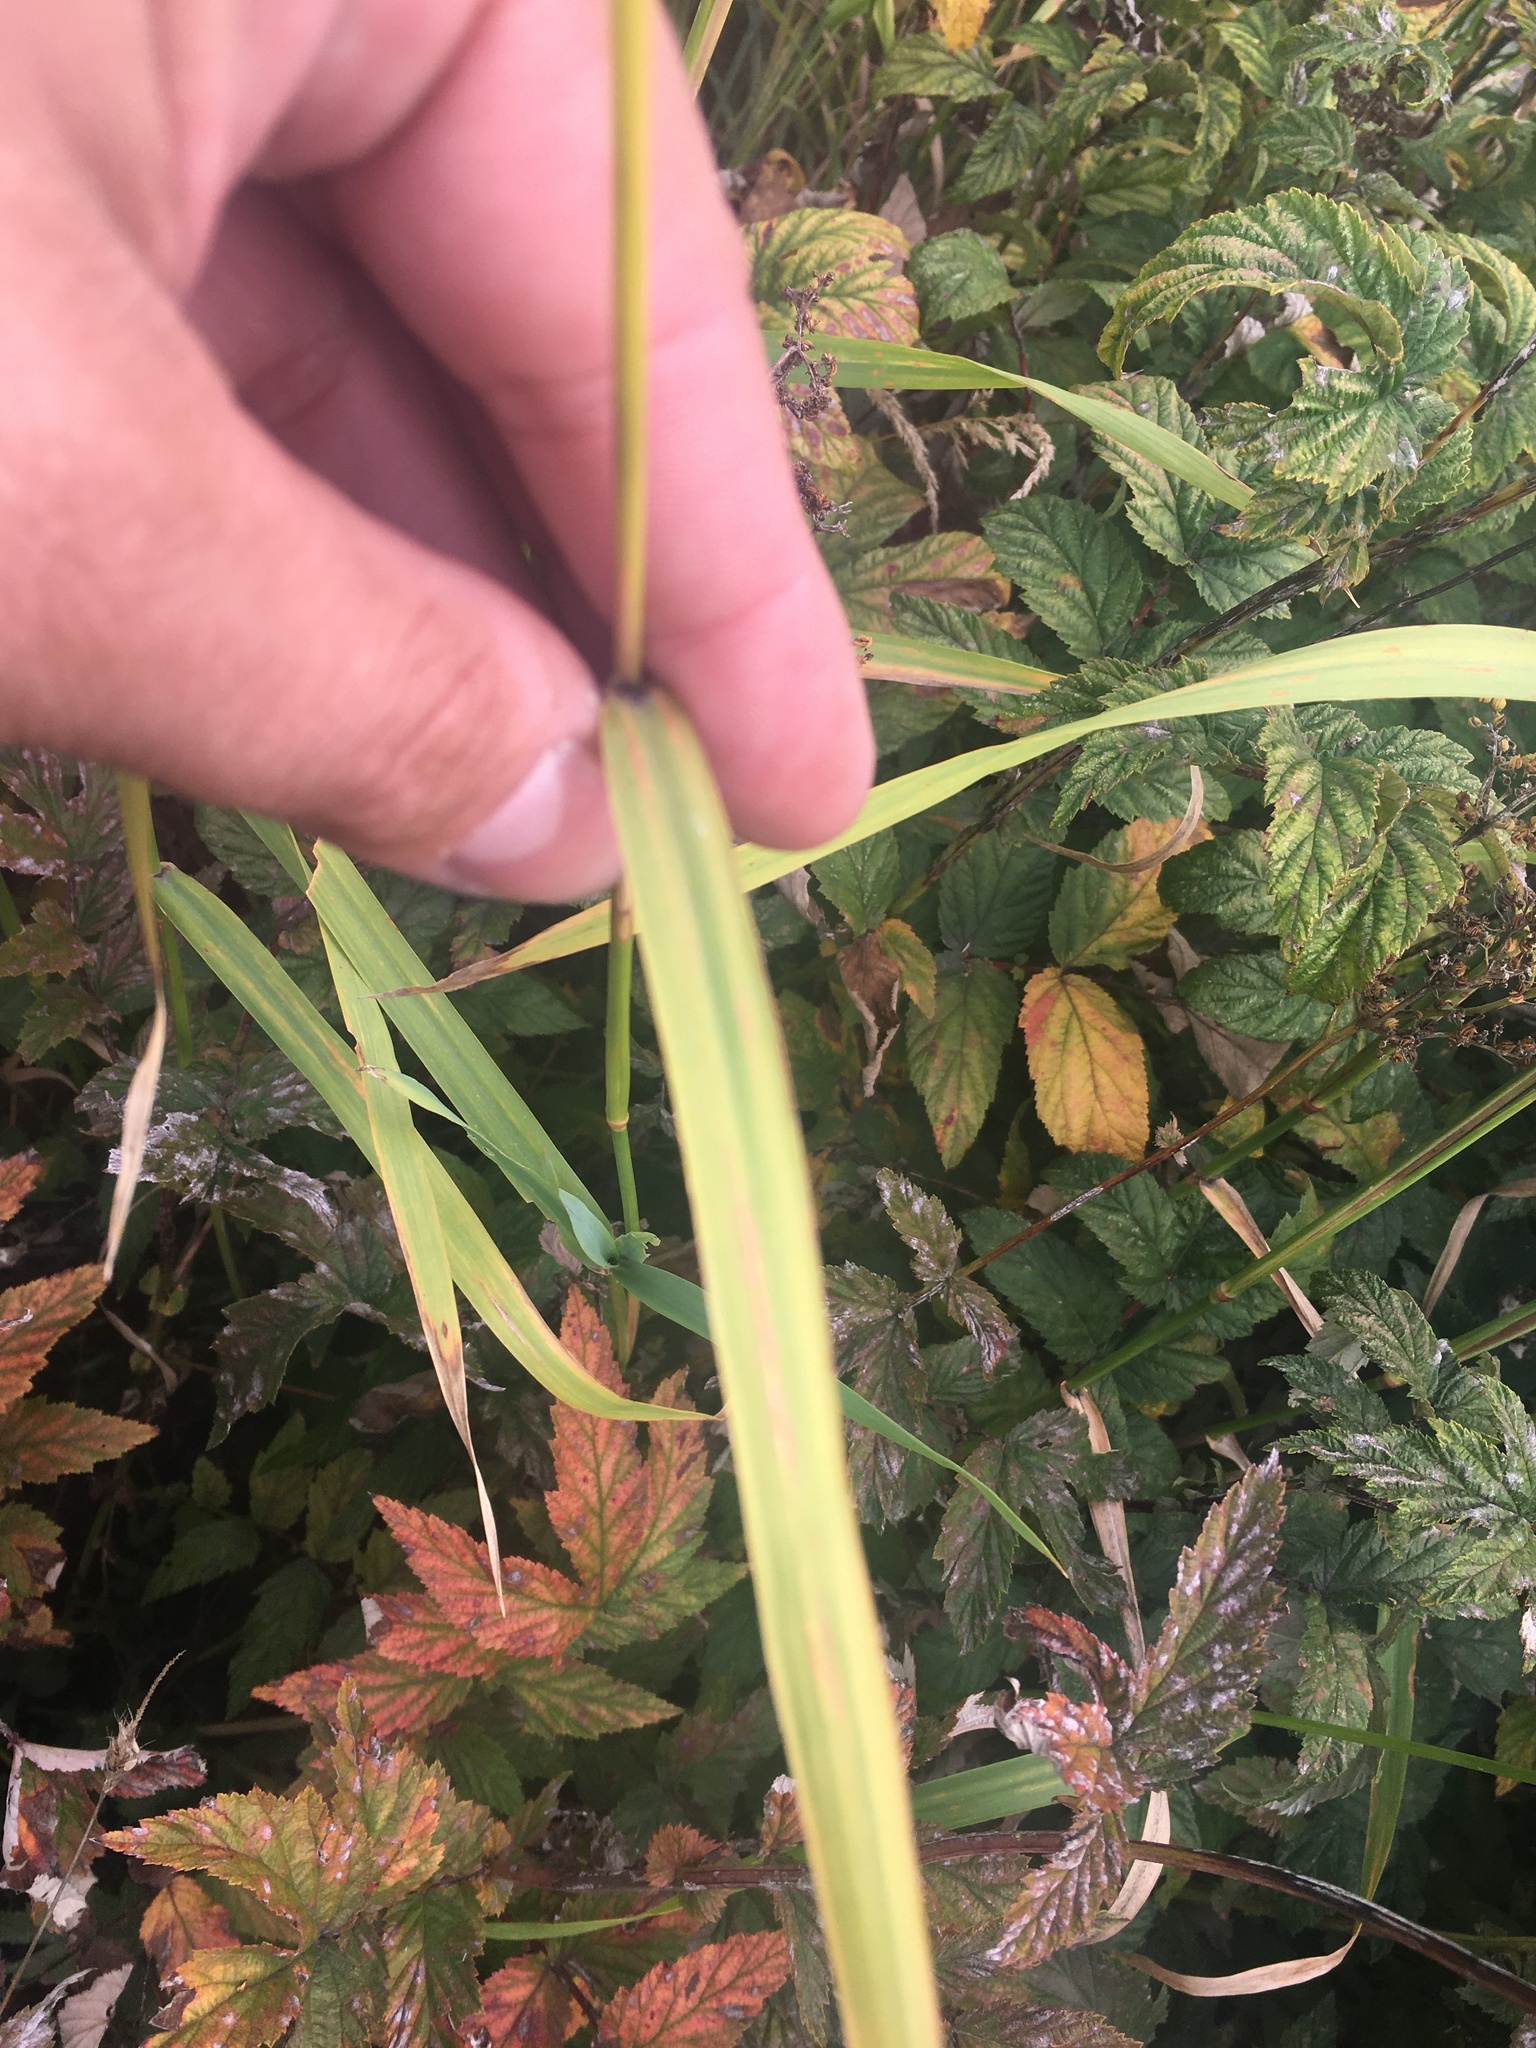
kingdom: Plantae
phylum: Tracheophyta
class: Liliopsida
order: Poales
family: Poaceae
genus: Phalaris
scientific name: Phalaris arundinacea
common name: Reed canary-grass
